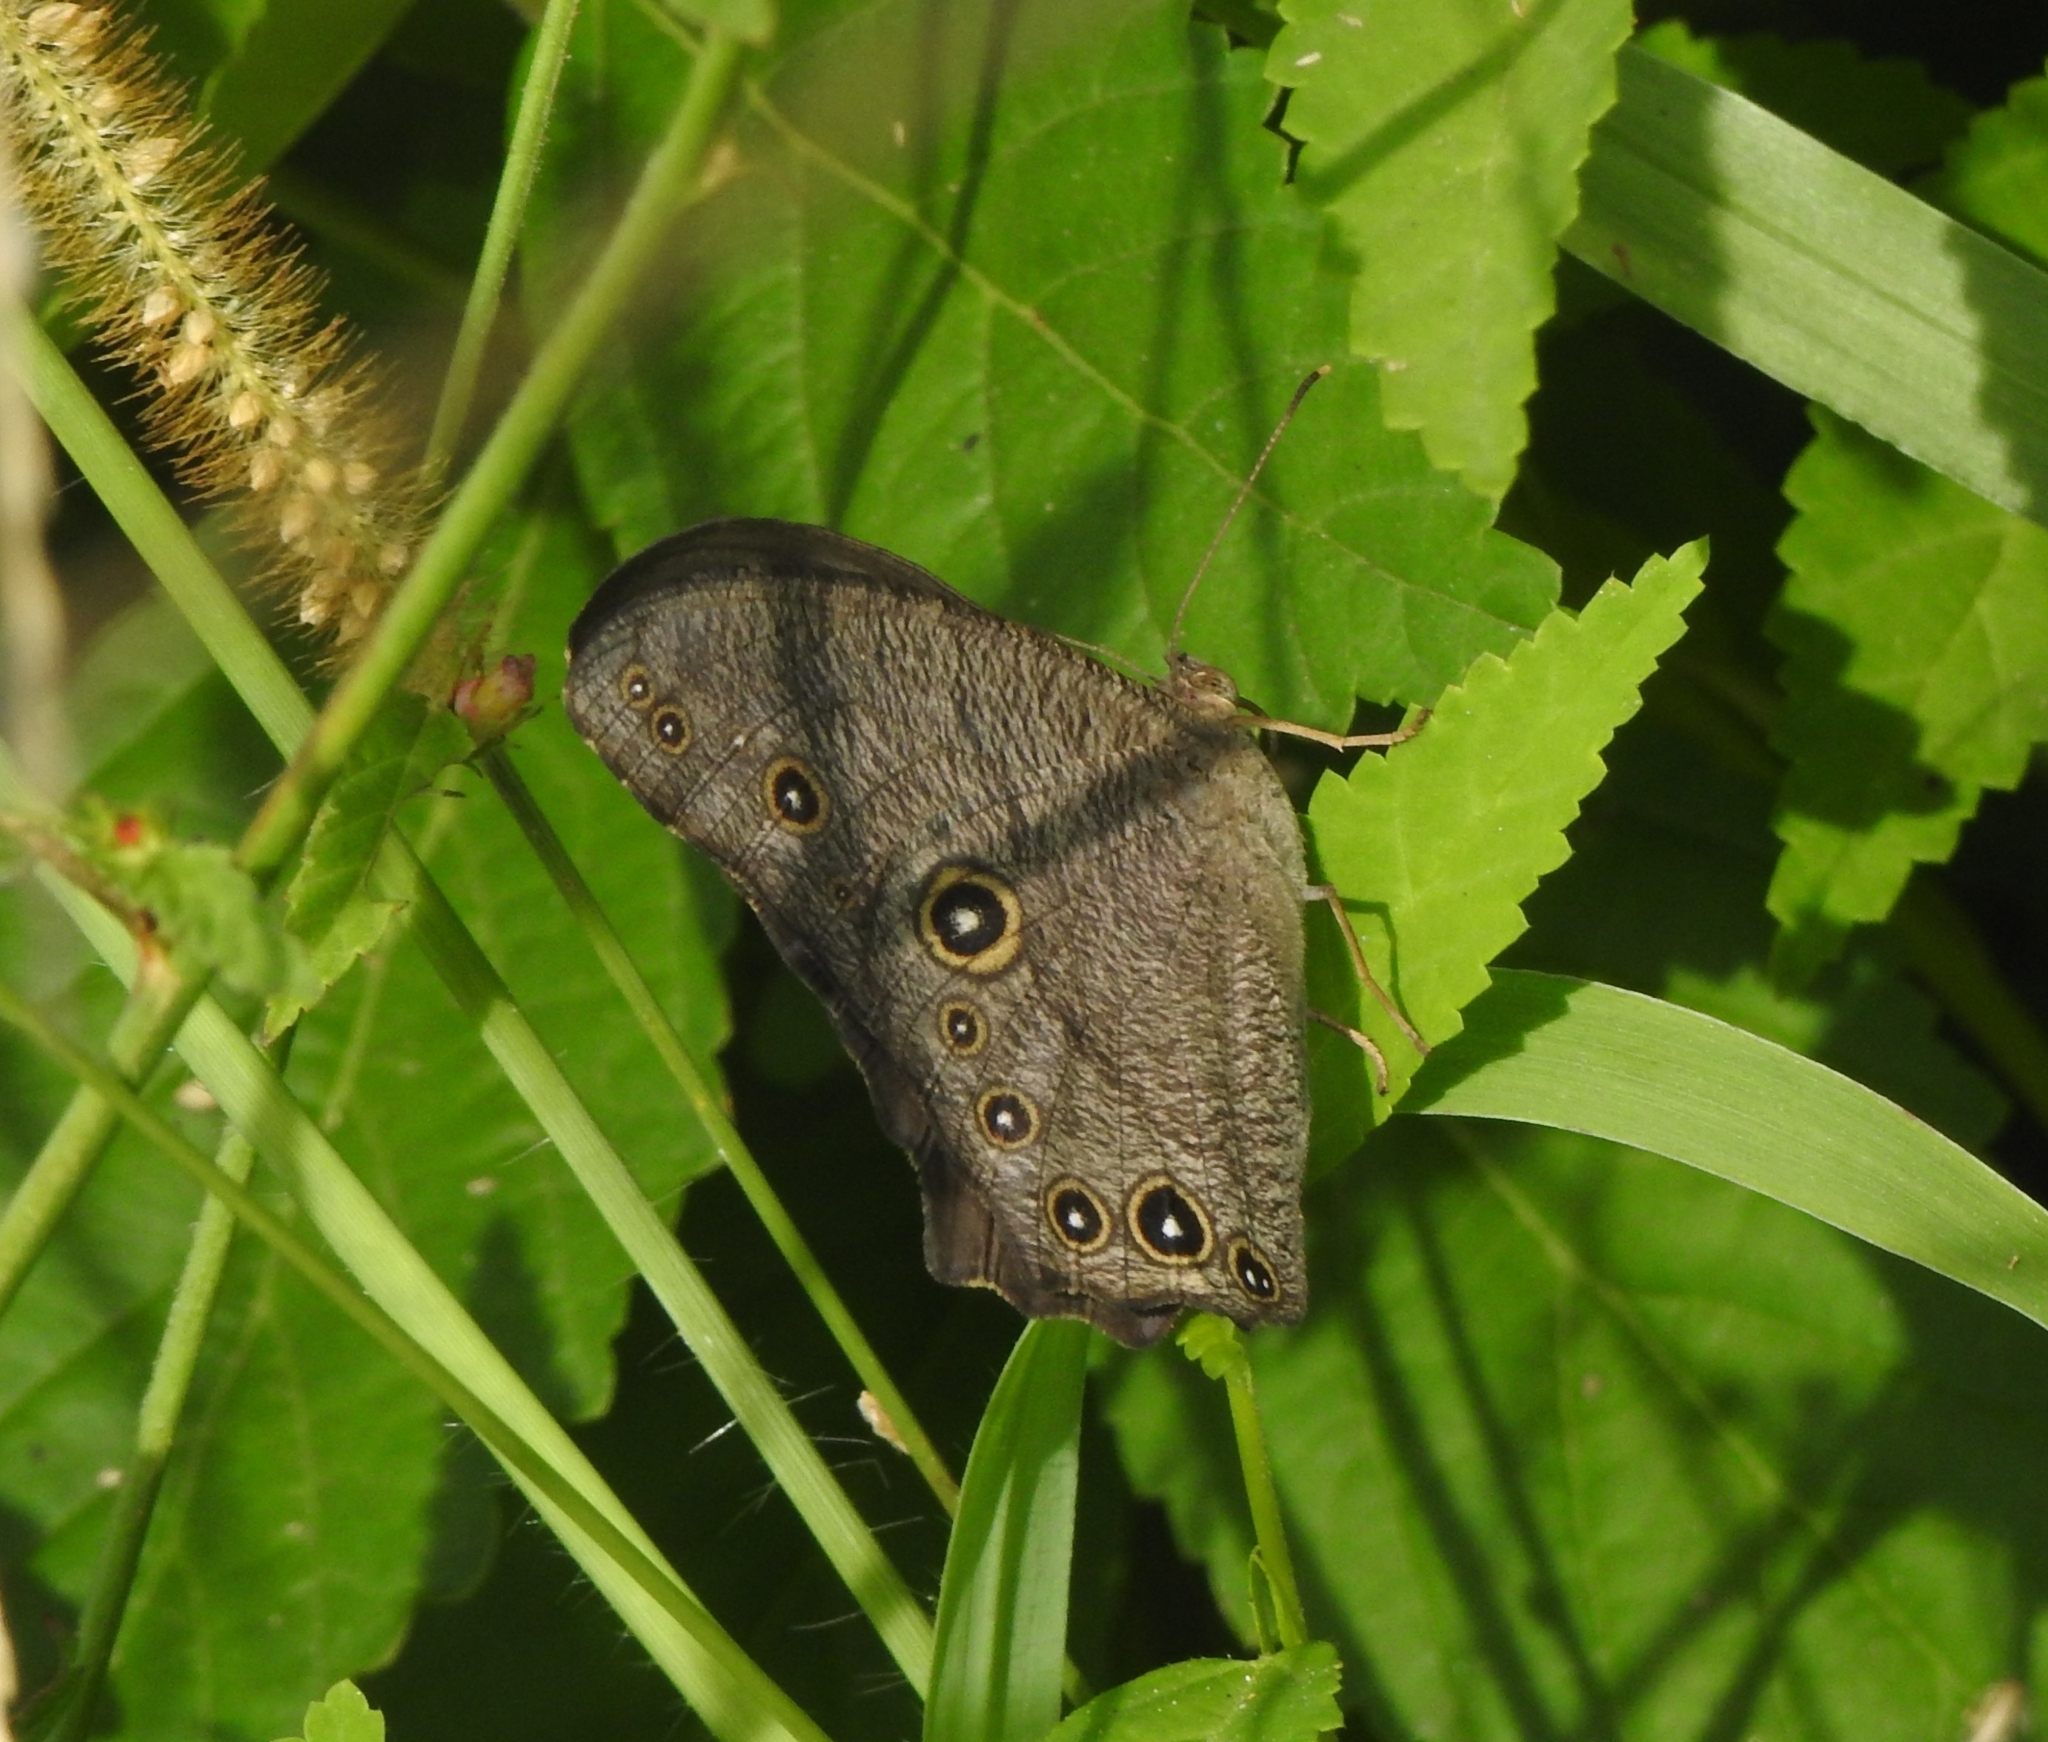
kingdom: Animalia
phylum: Arthropoda
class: Insecta
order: Lepidoptera
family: Nymphalidae
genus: Melanitis
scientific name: Melanitis leda
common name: Twilight brown
